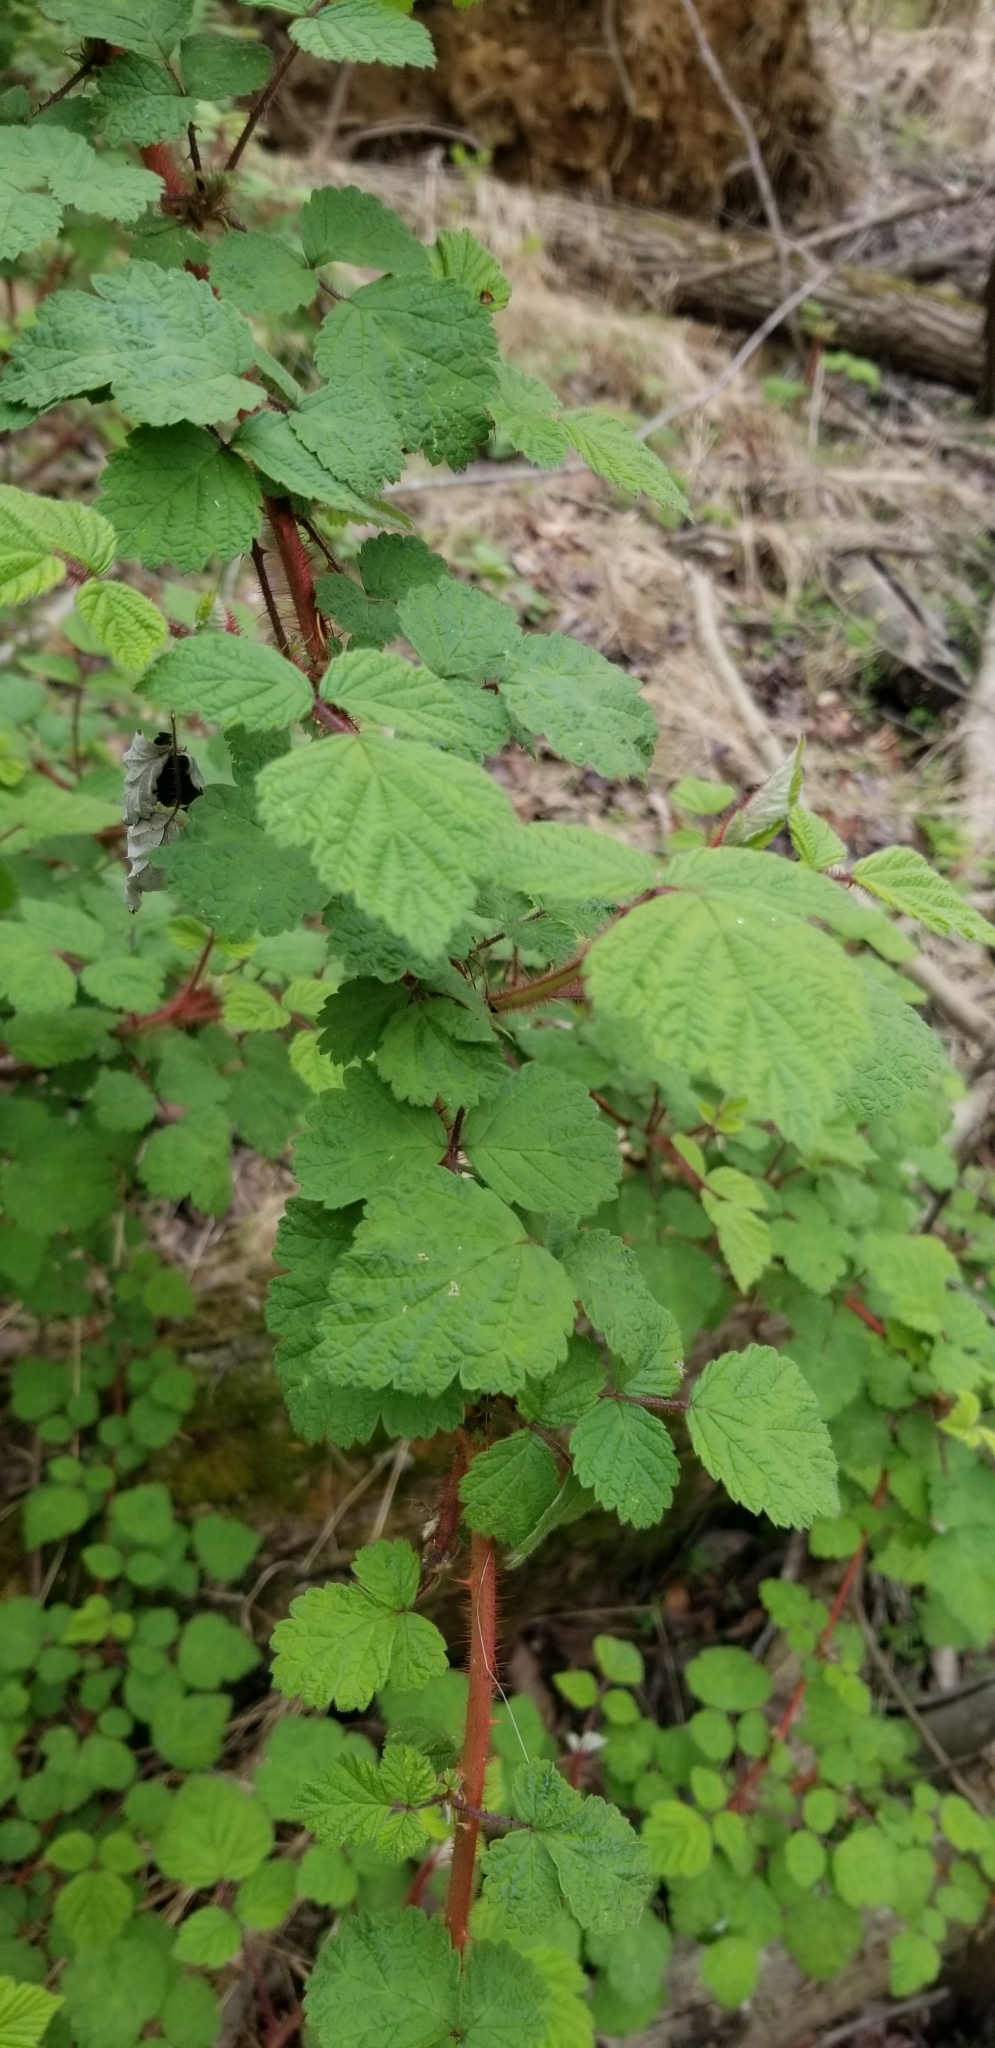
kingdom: Plantae
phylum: Tracheophyta
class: Magnoliopsida
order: Rosales
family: Rosaceae
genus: Rubus
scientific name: Rubus phoenicolasius
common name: Japanese wineberry
